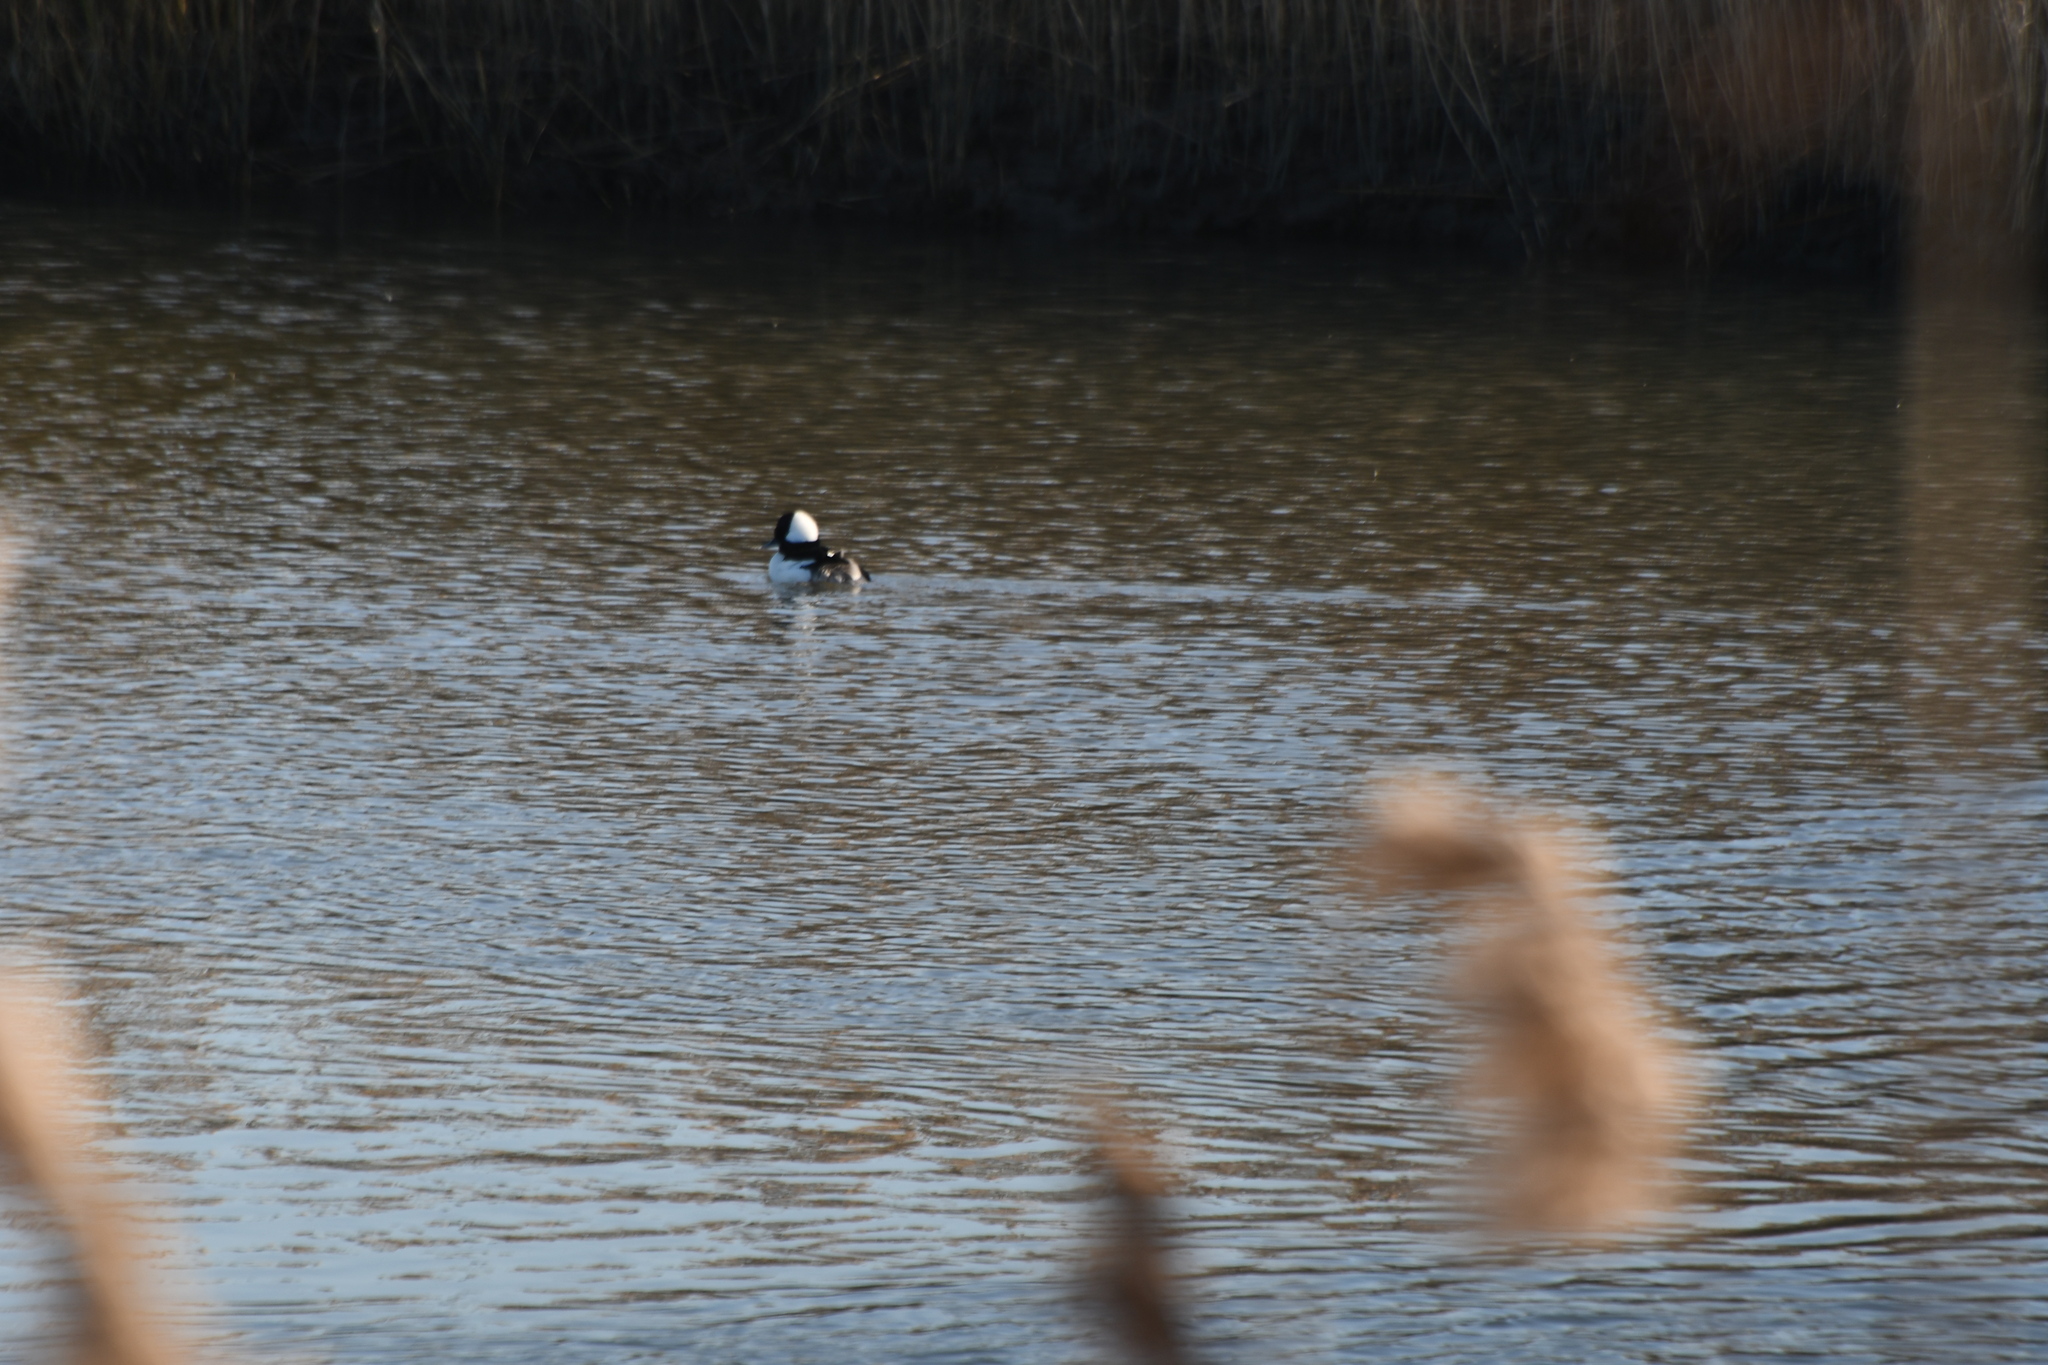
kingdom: Animalia
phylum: Chordata
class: Aves
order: Anseriformes
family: Anatidae
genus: Bucephala
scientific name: Bucephala albeola
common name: Bufflehead
